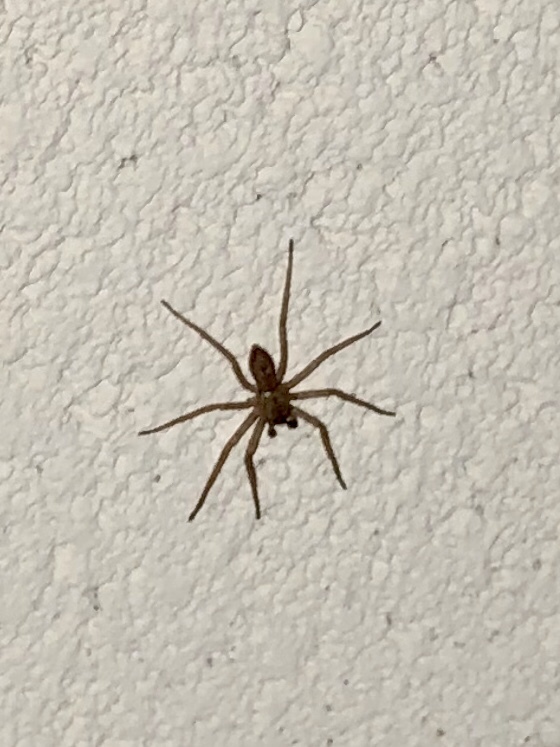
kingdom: Animalia
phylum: Arthropoda
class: Arachnida
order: Araneae
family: Zoropsidae
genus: Lauricius
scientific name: Lauricius hooki
